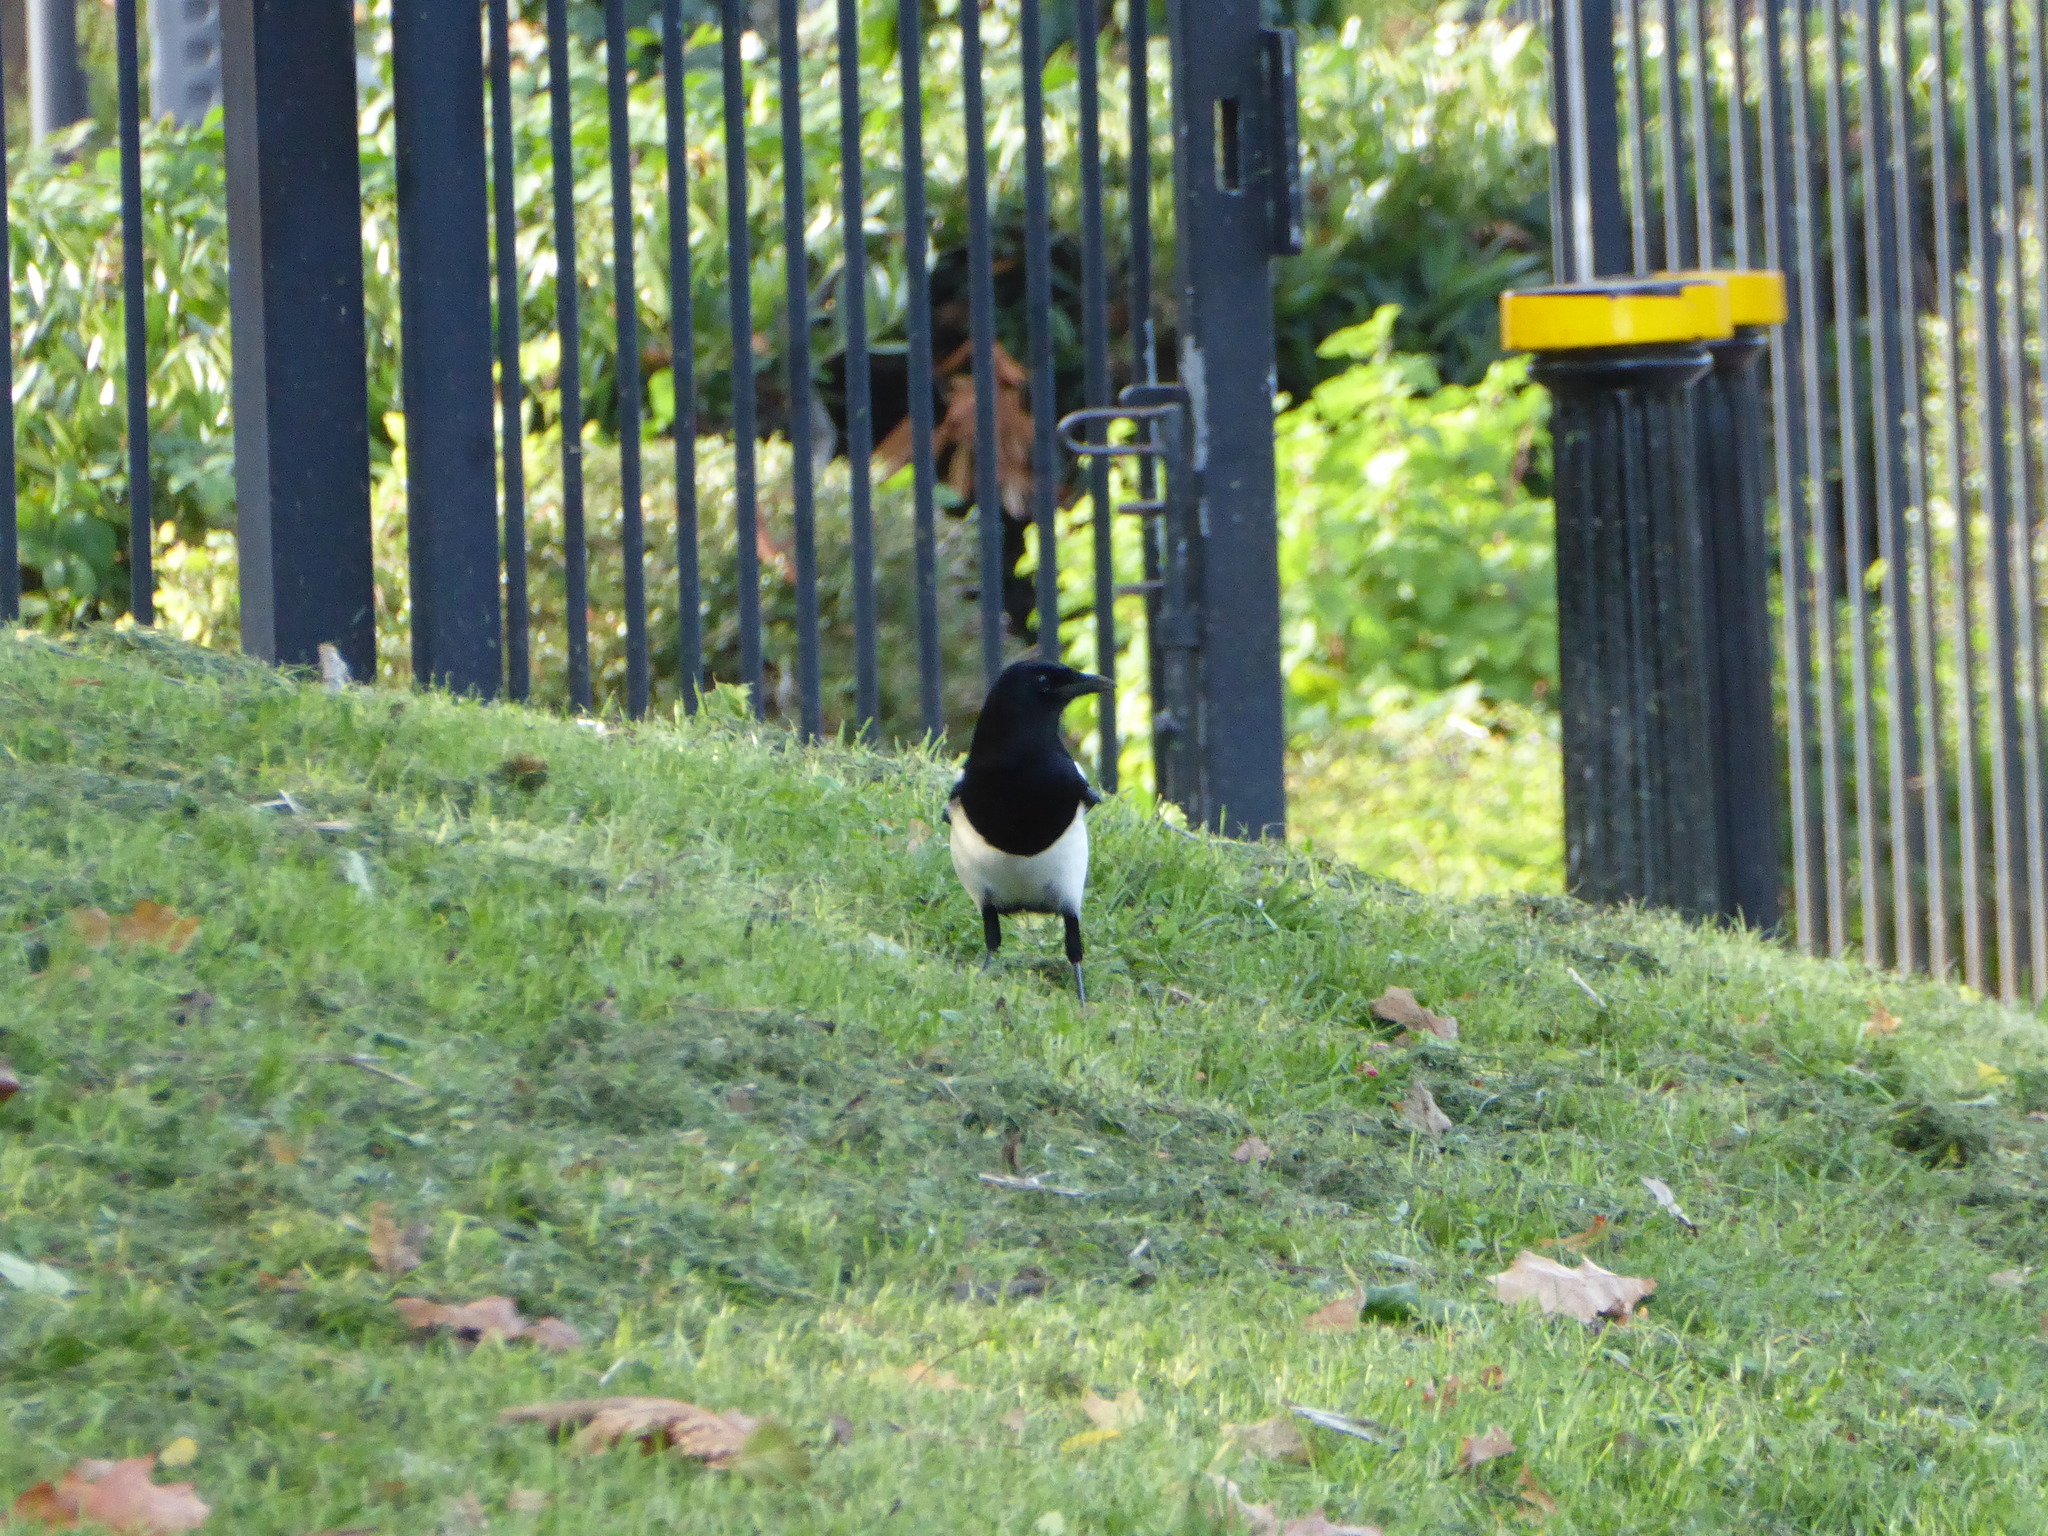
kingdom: Animalia
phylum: Chordata
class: Aves
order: Passeriformes
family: Corvidae
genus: Pica
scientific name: Pica pica
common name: Eurasian magpie
